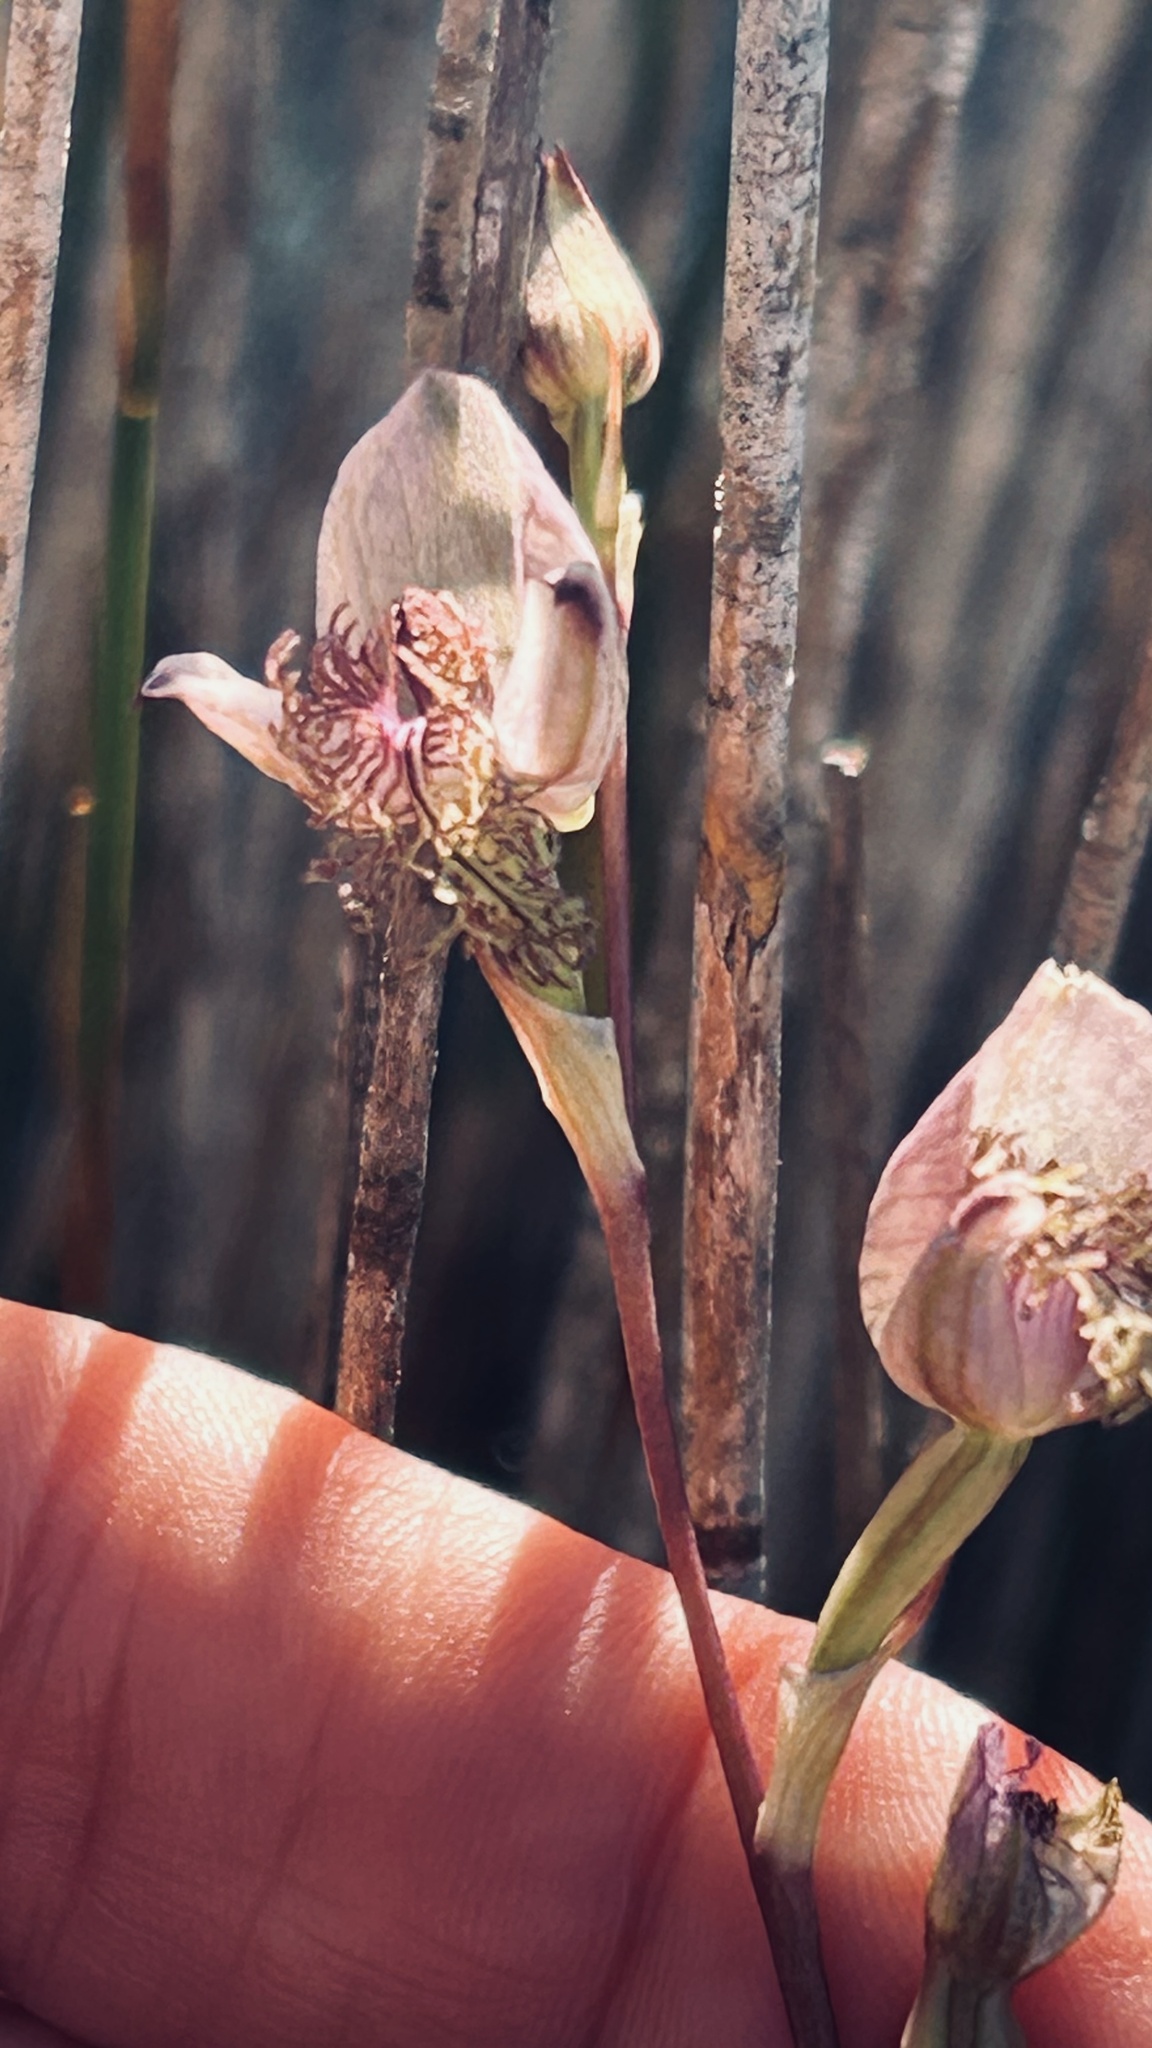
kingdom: Plantae
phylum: Tracheophyta
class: Liliopsida
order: Asparagales
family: Orchidaceae
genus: Disa
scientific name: Disa lugens
